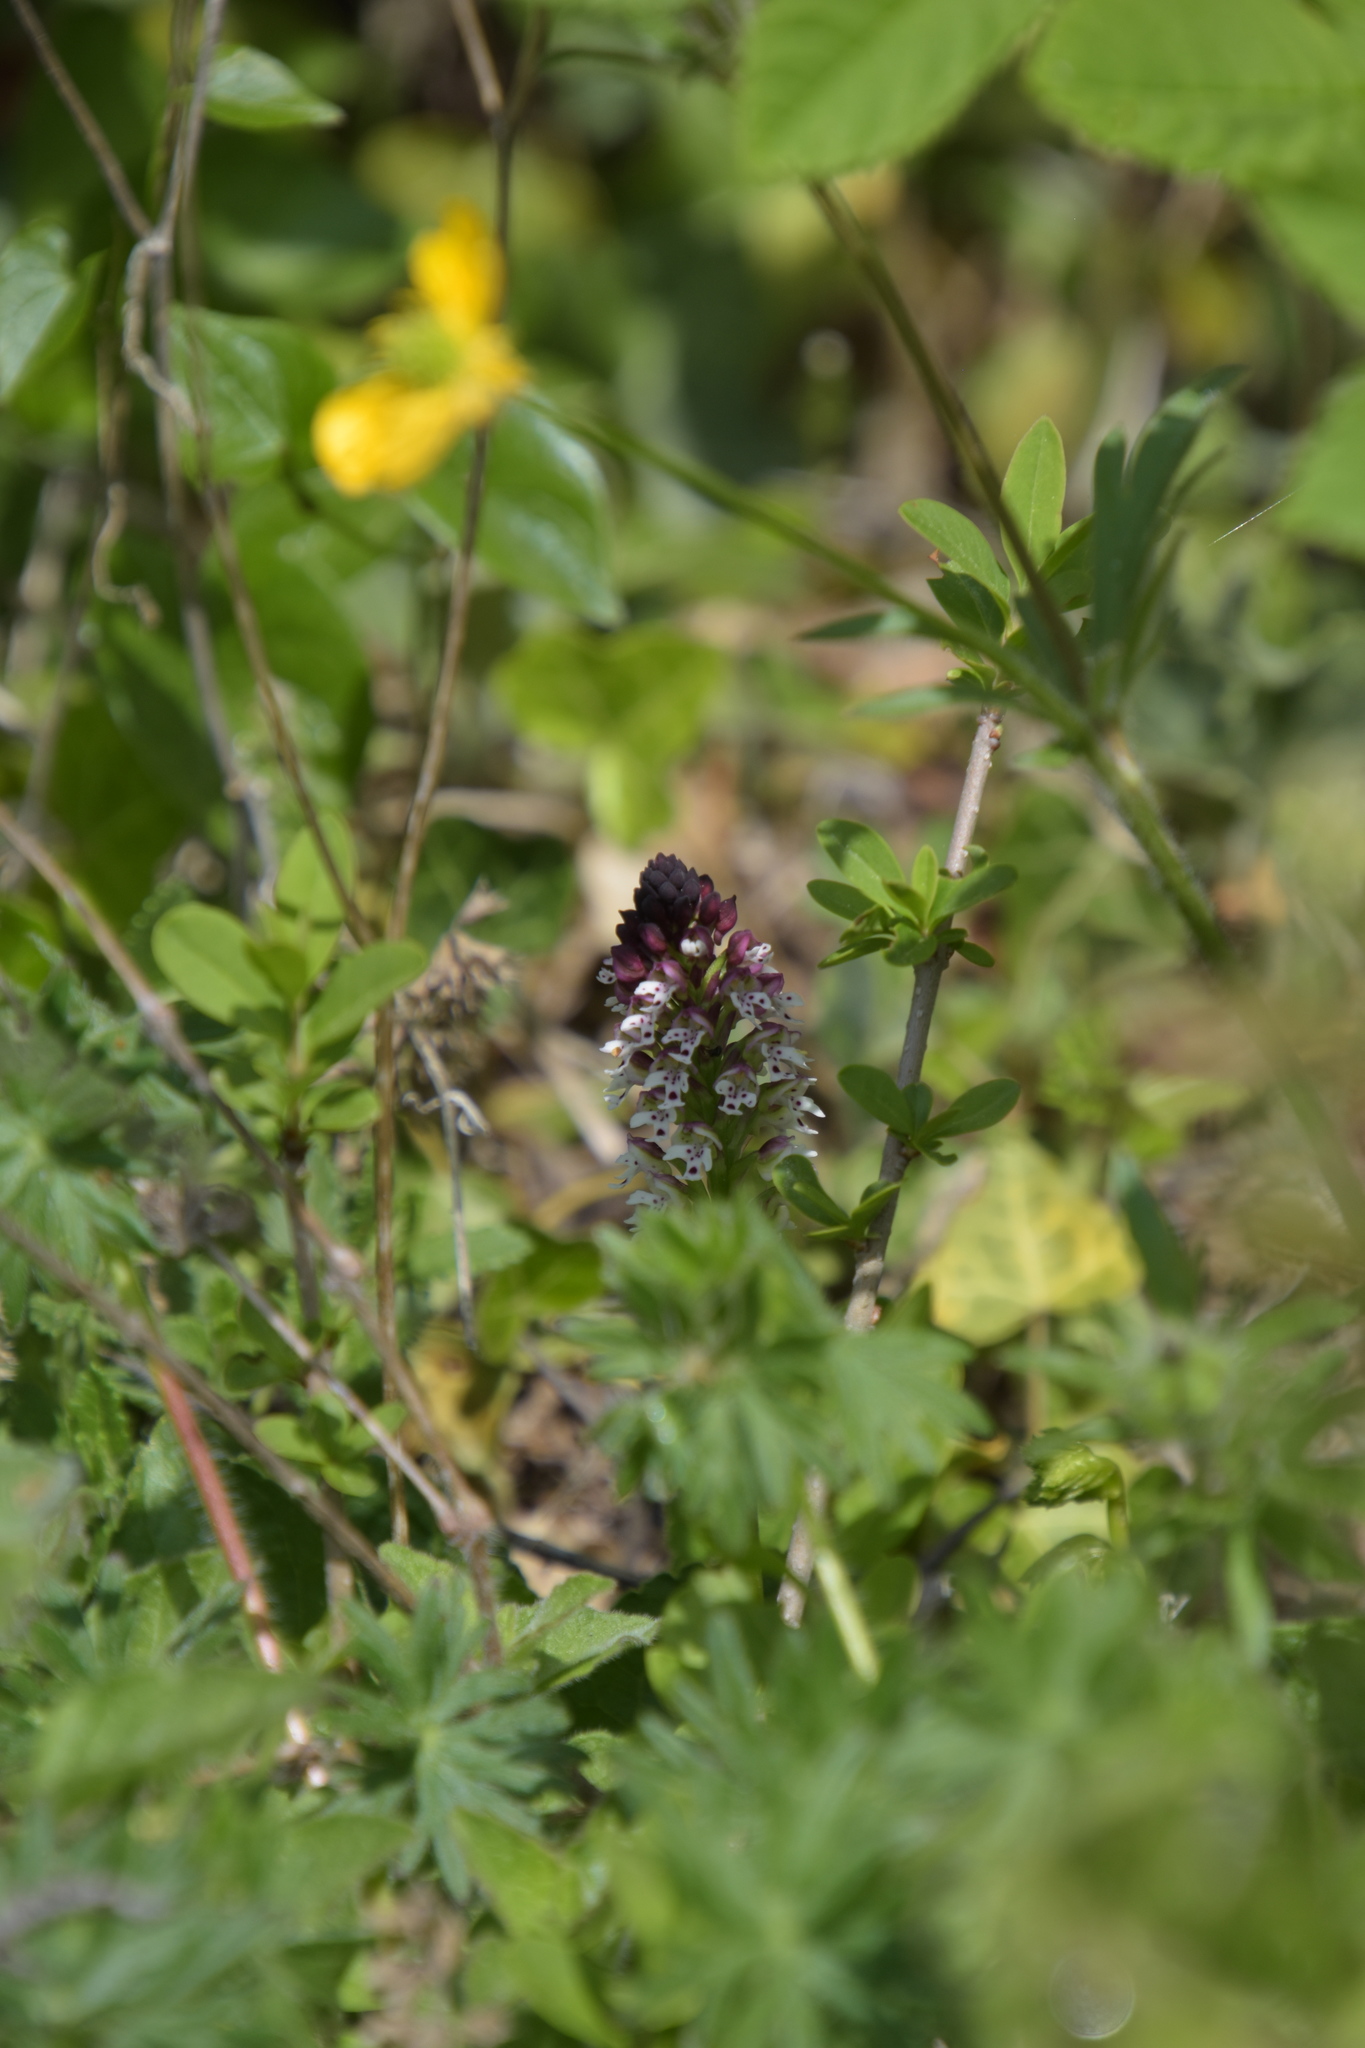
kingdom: Plantae
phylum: Tracheophyta
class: Liliopsida
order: Asparagales
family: Orchidaceae
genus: Neotinea
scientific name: Neotinea ustulata
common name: Burnt orchid
